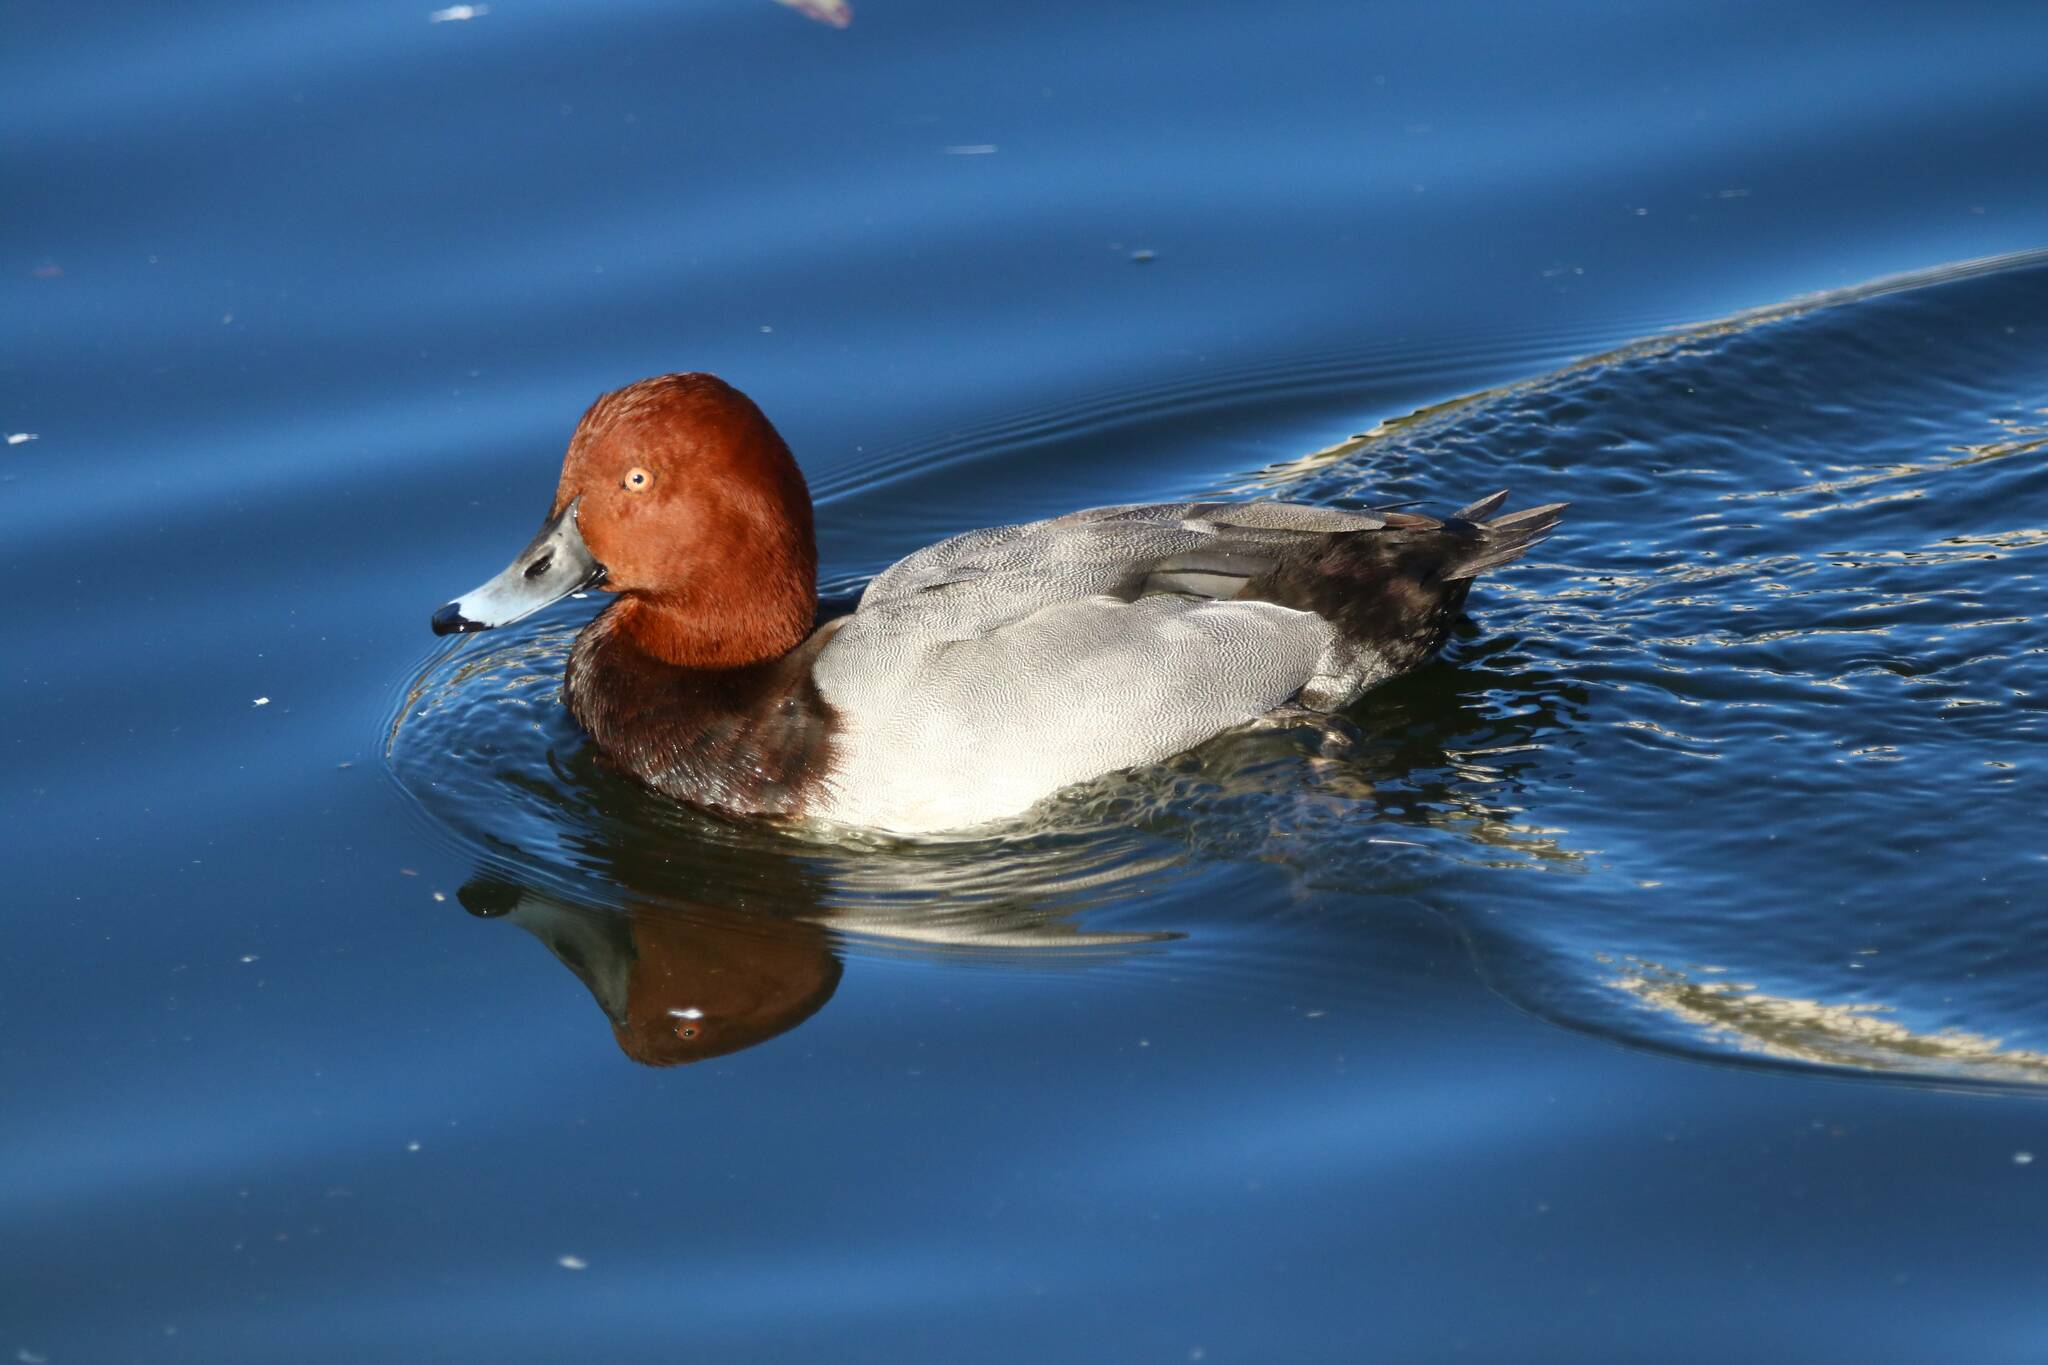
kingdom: Animalia
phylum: Chordata
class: Aves
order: Anseriformes
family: Anatidae
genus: Aythya
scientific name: Aythya ferina
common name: Common pochard
